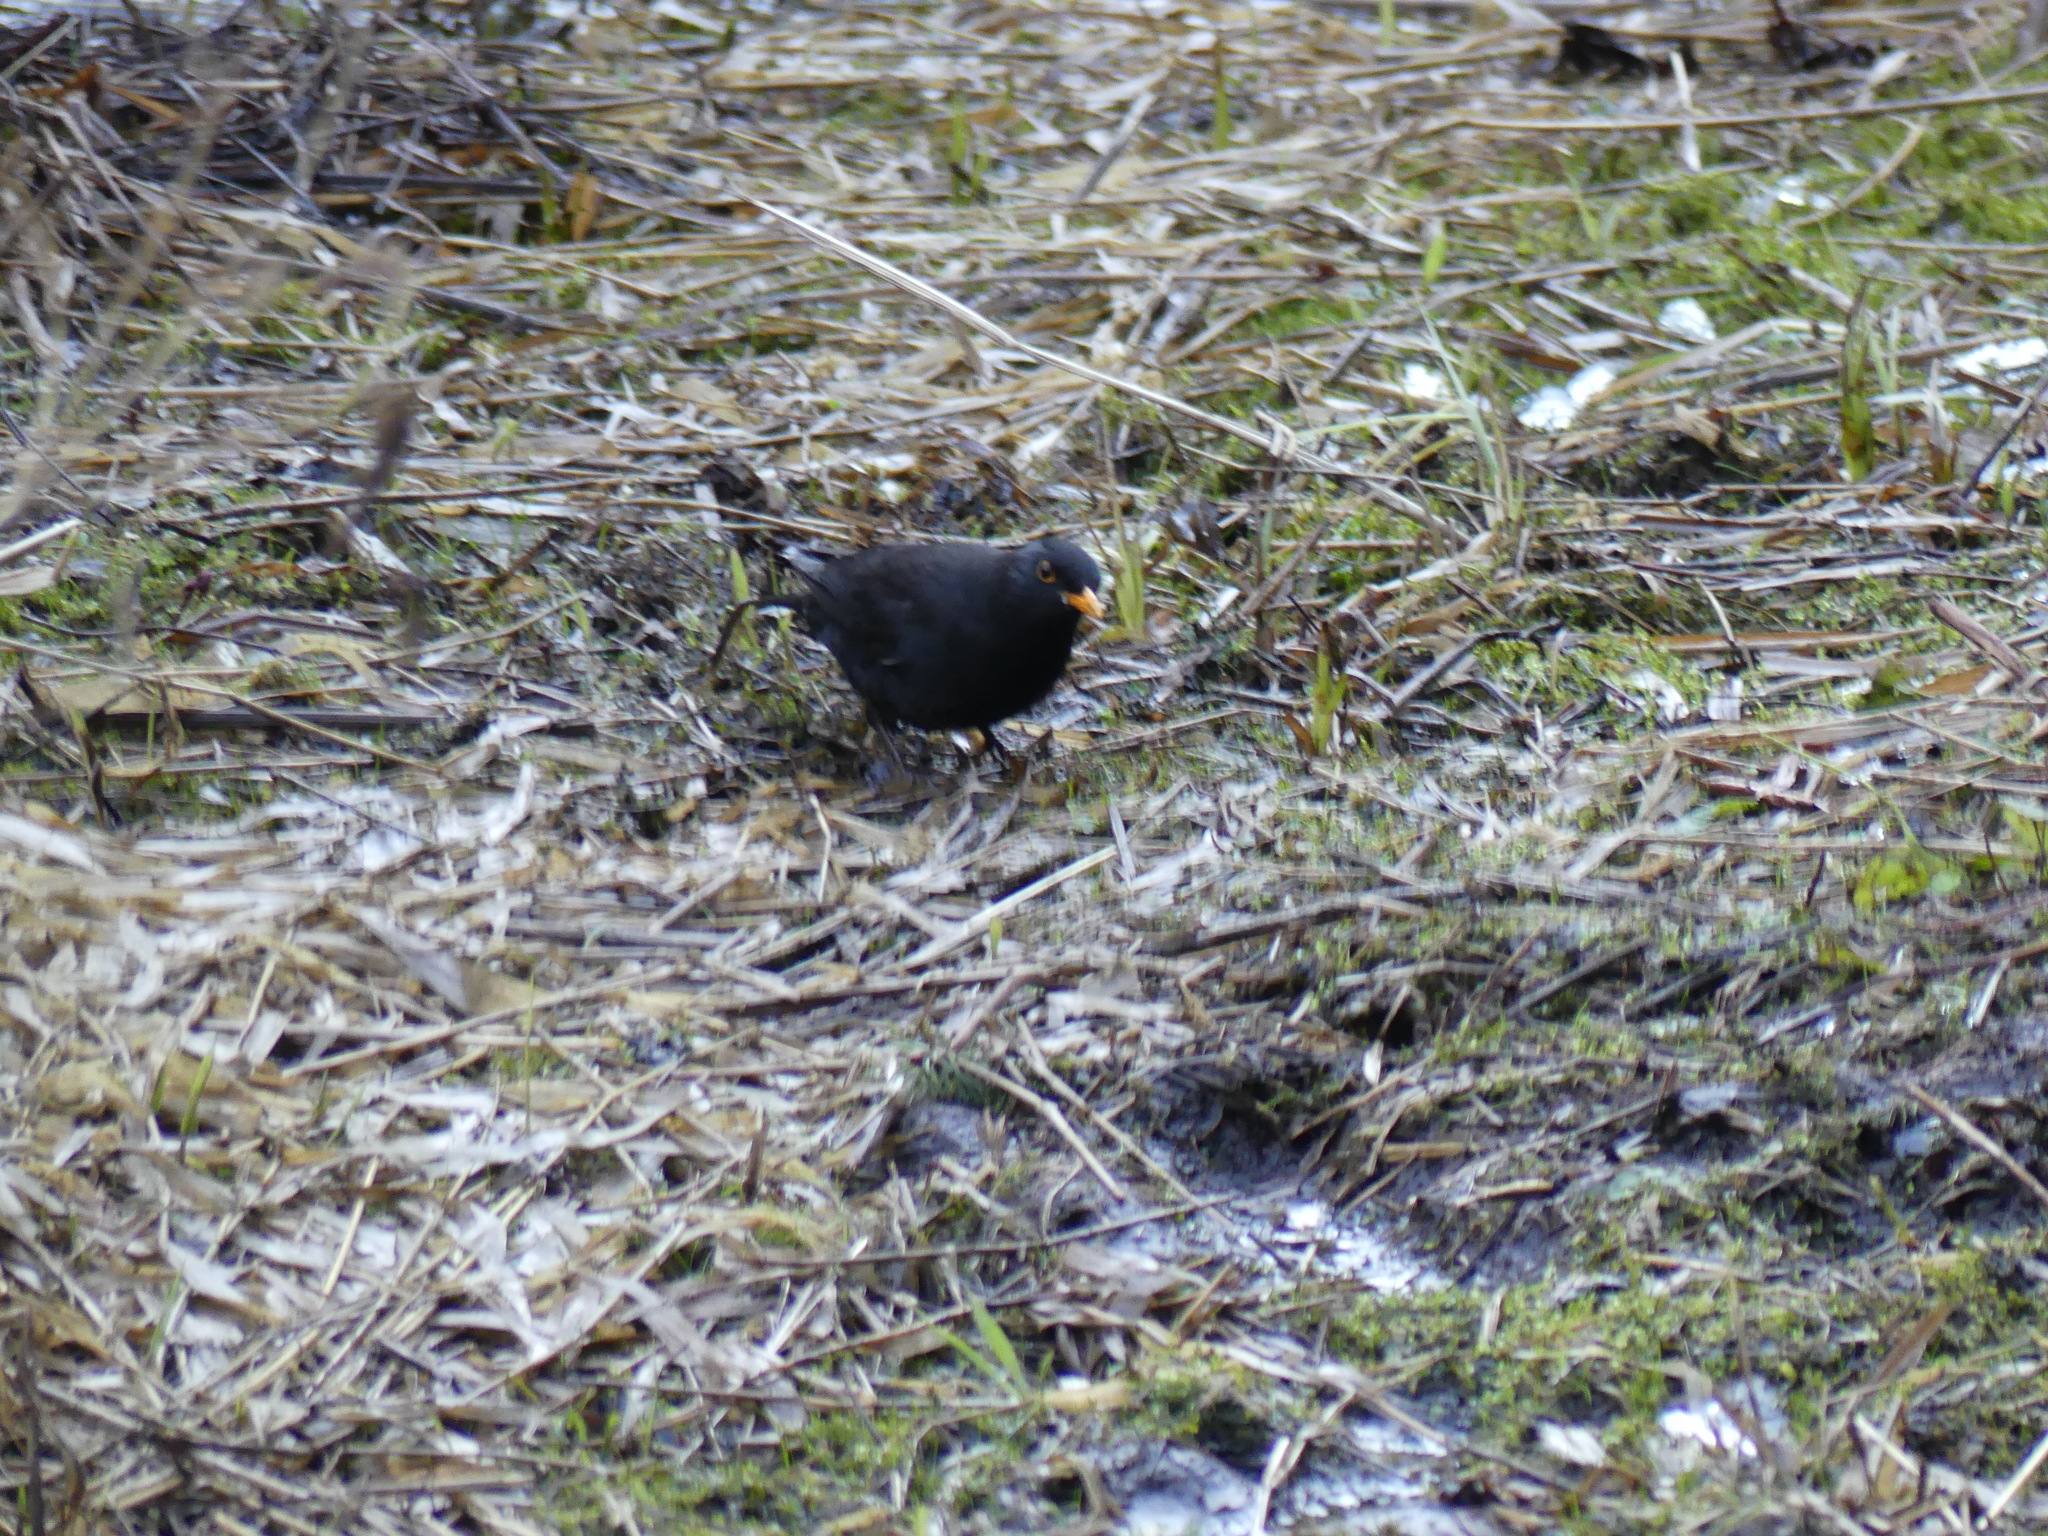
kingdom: Animalia
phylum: Chordata
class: Aves
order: Passeriformes
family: Turdidae
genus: Turdus
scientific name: Turdus merula
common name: Common blackbird
